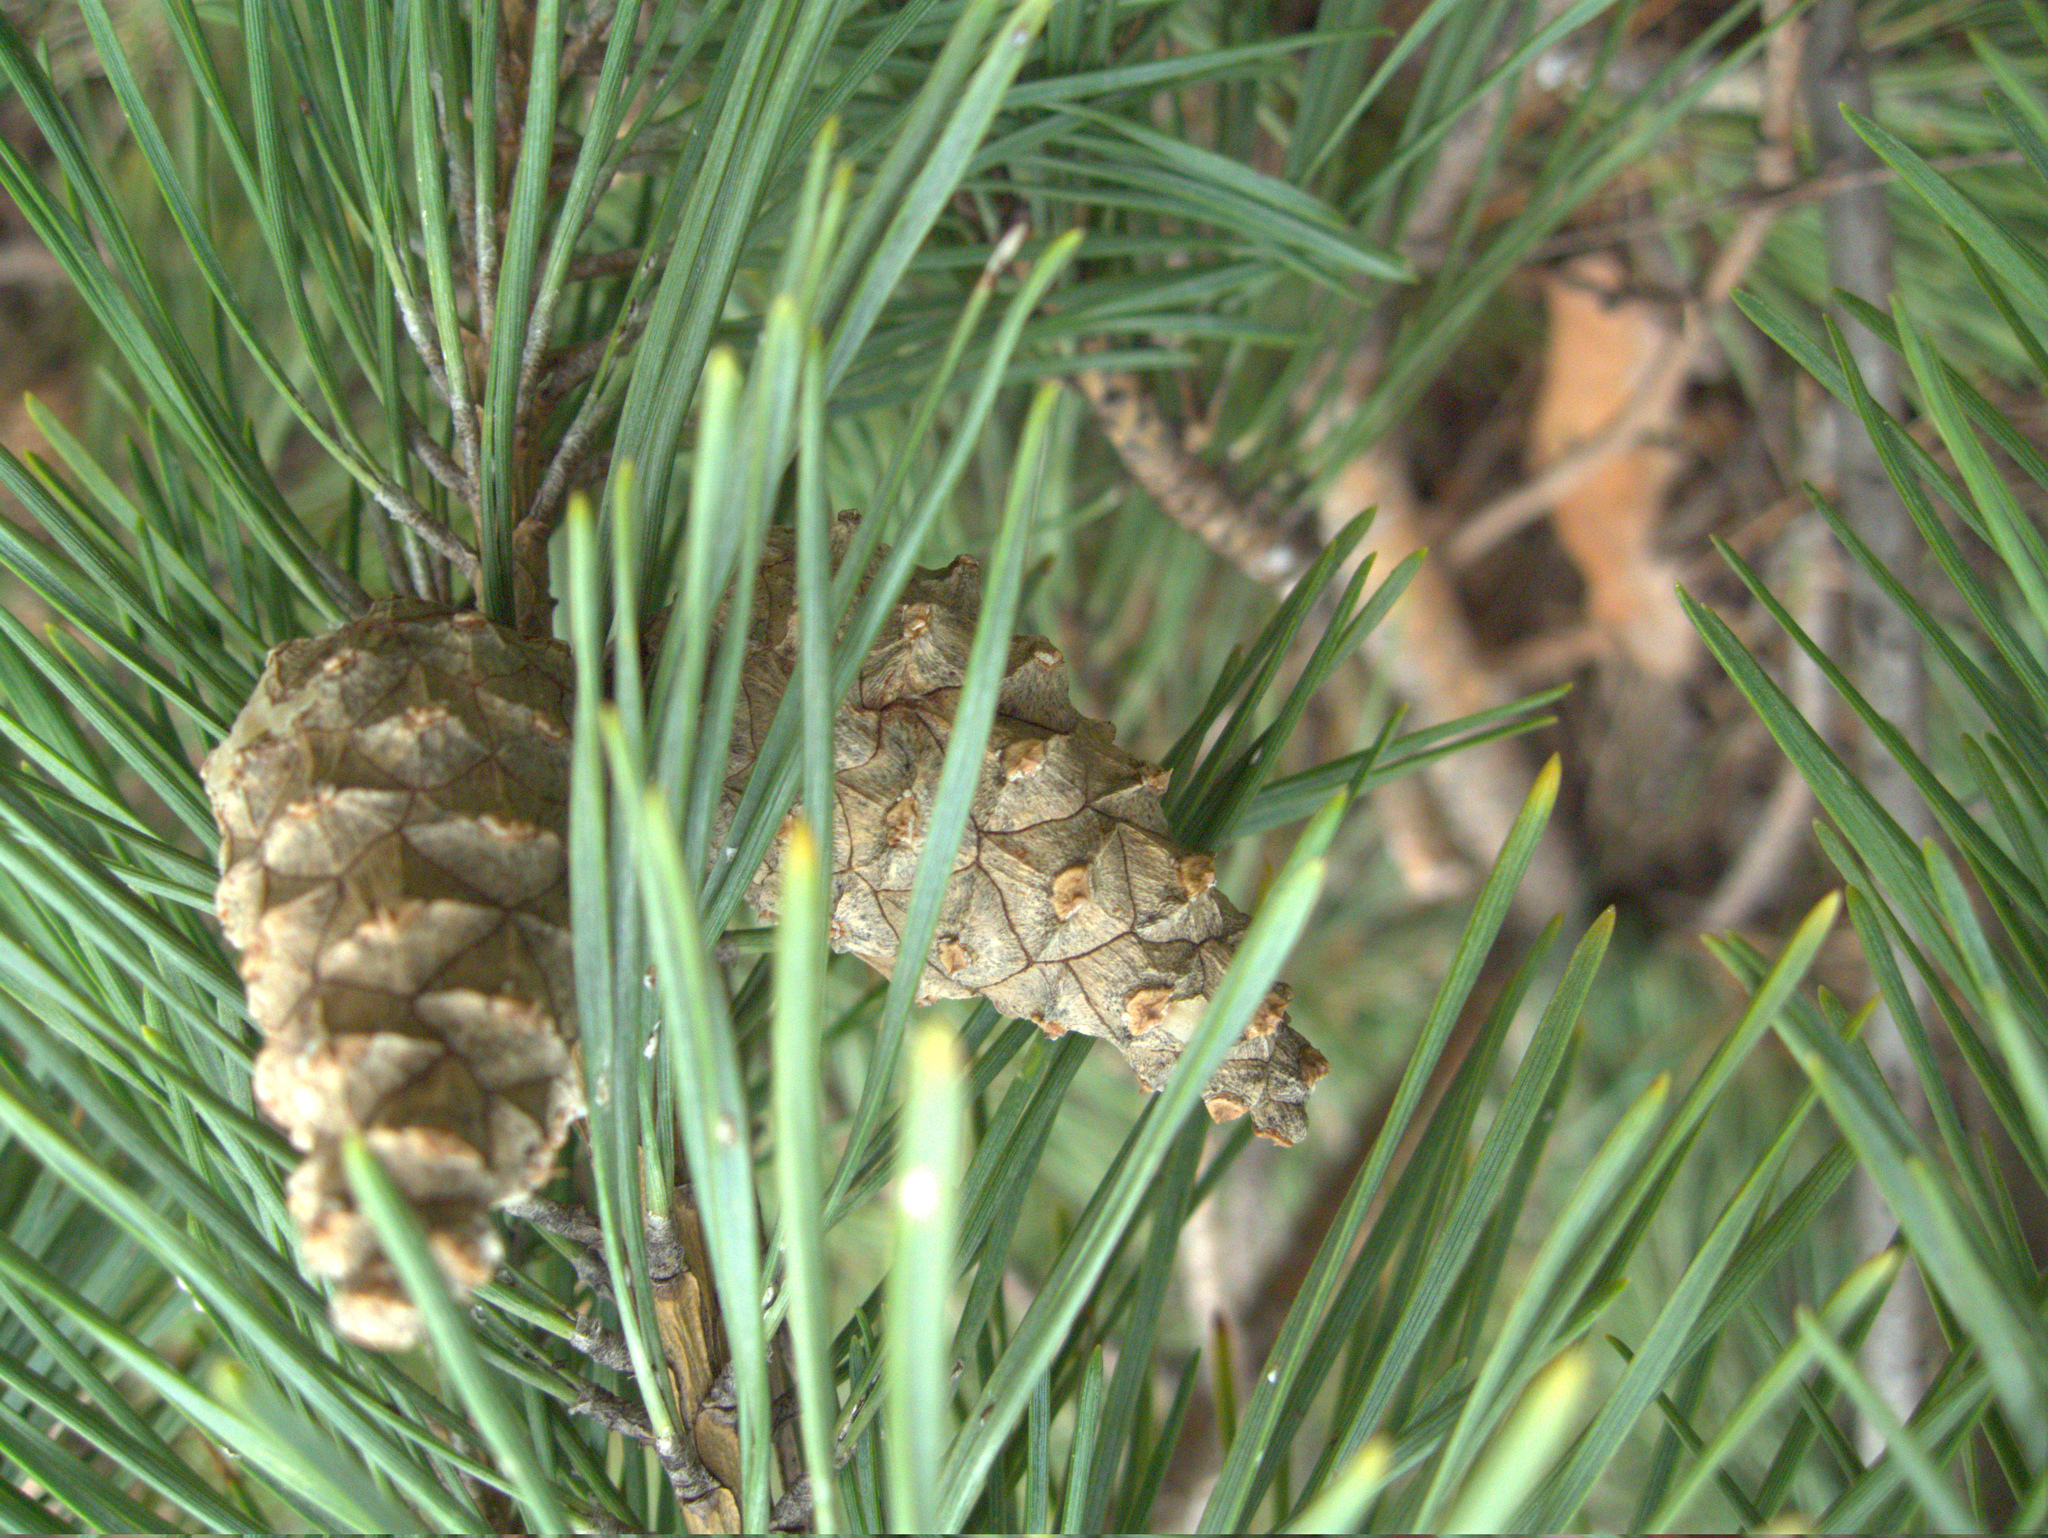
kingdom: Plantae
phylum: Tracheophyta
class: Pinopsida
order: Pinales
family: Pinaceae
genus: Pinus
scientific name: Pinus sylvestris
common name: Scots pine
